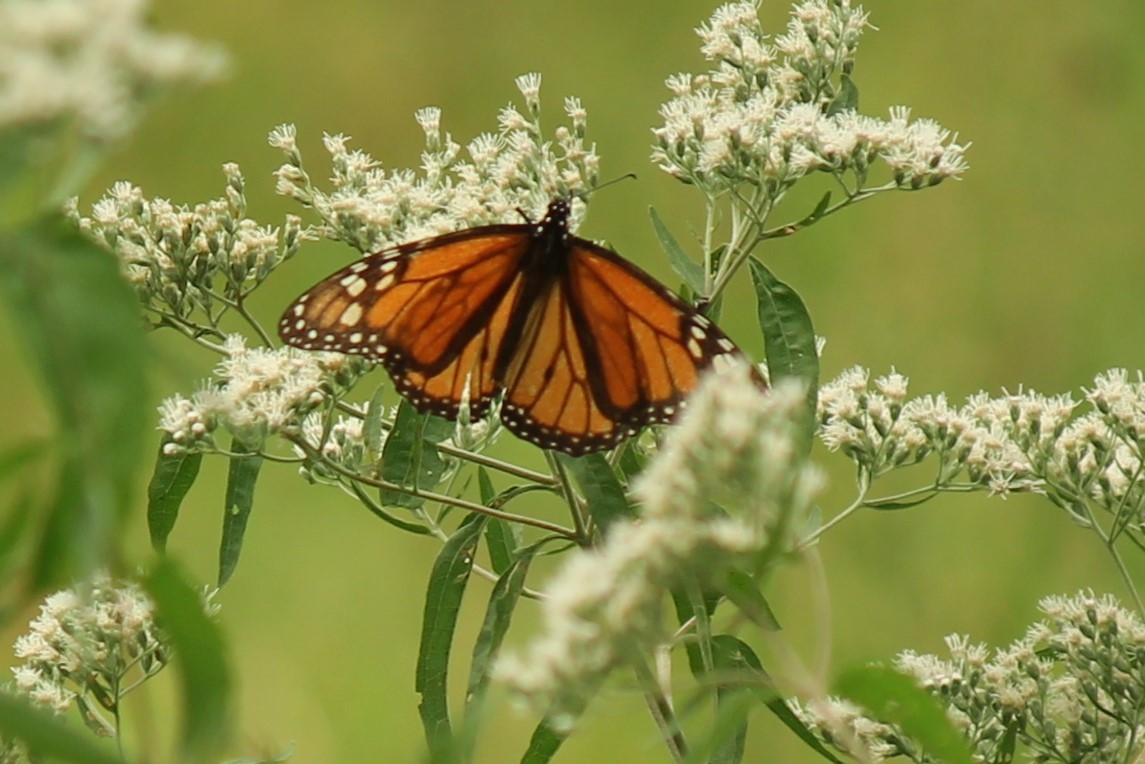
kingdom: Animalia
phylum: Arthropoda
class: Insecta
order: Lepidoptera
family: Nymphalidae
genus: Danaus
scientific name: Danaus plexippus
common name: Monarch
